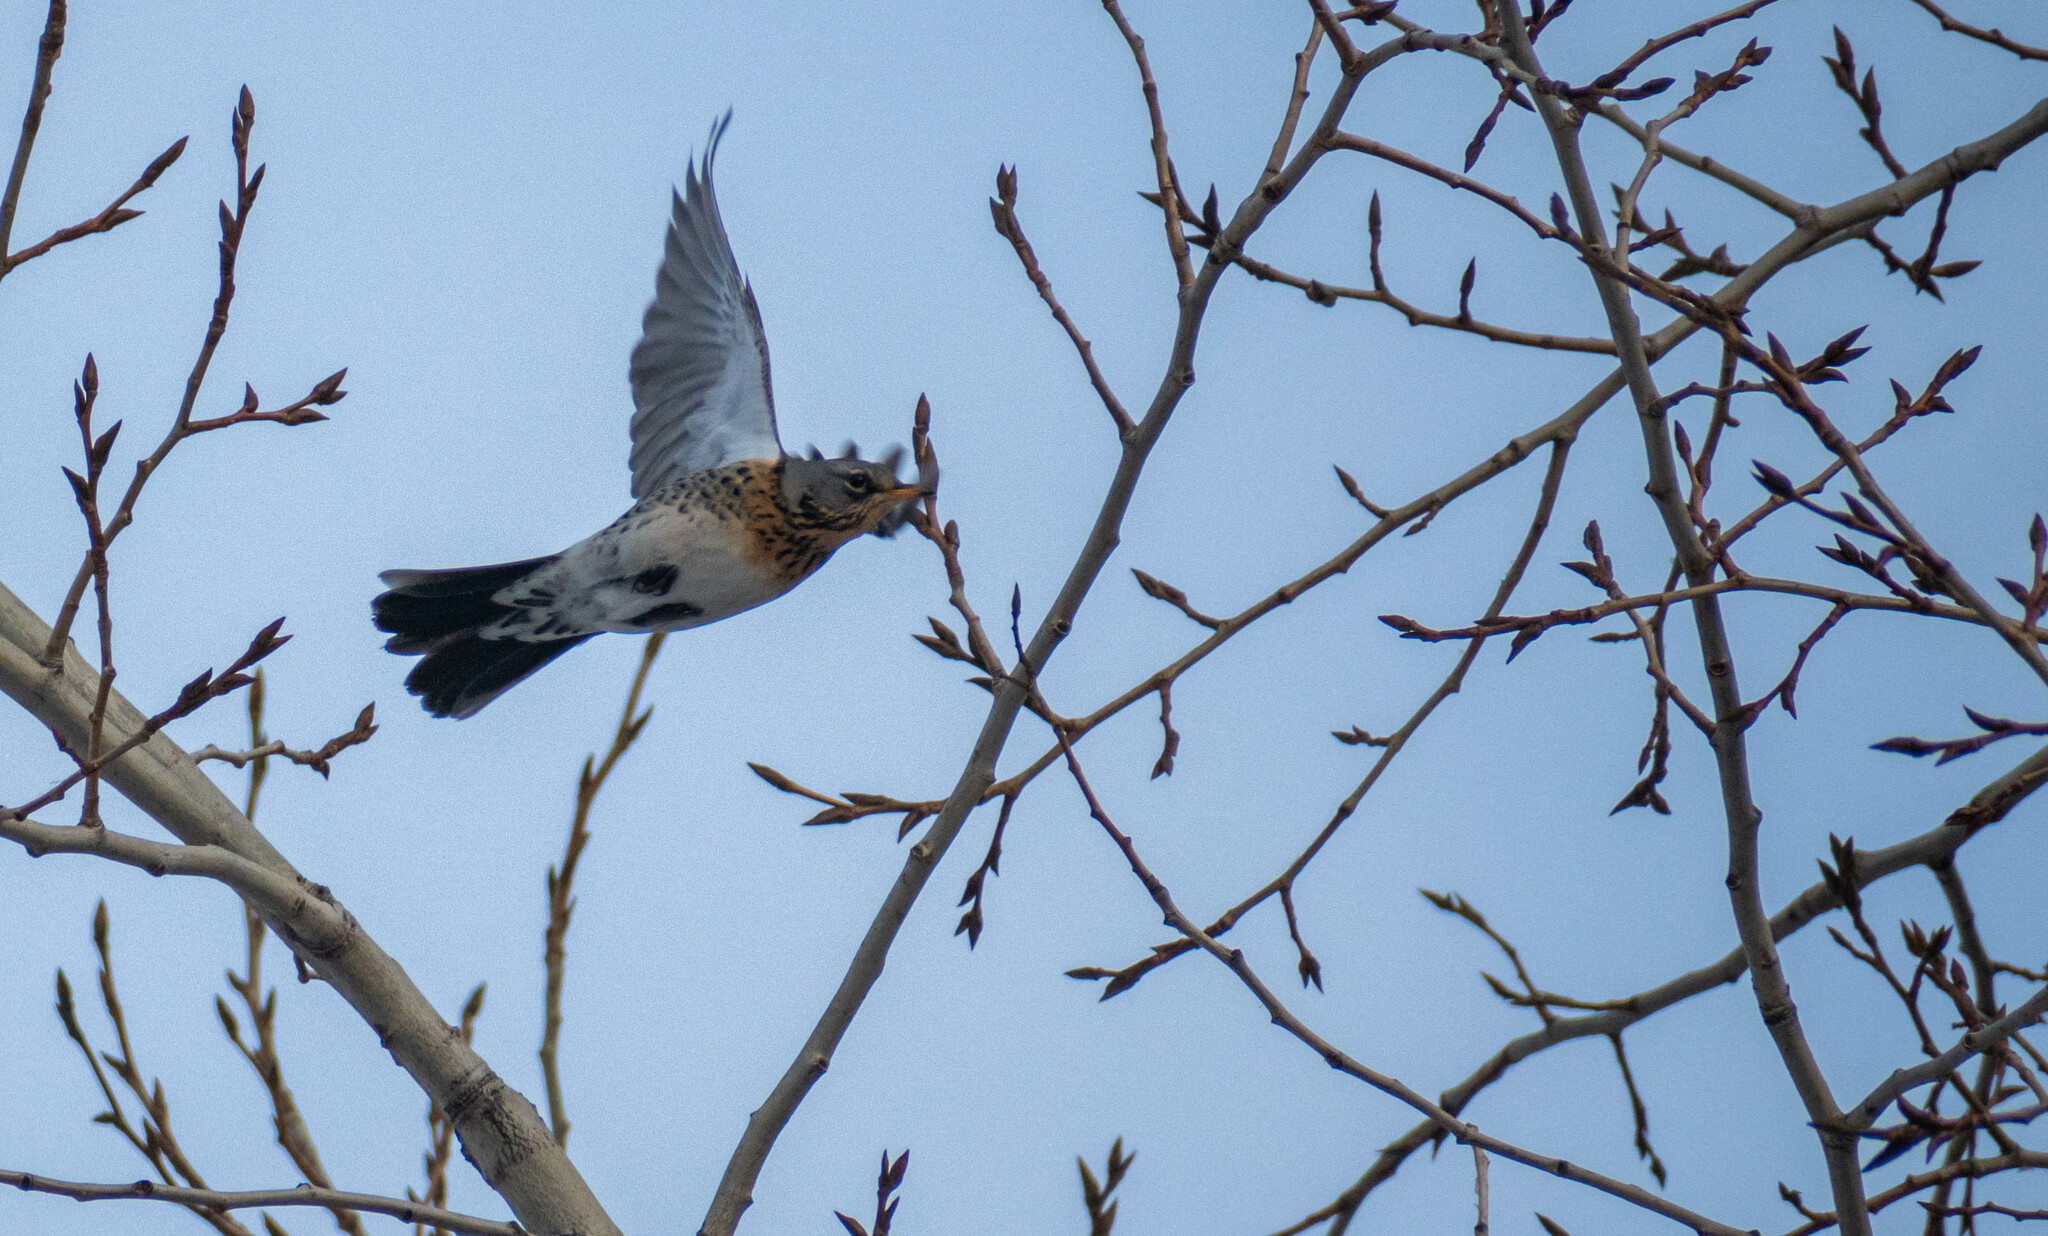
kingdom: Animalia
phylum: Chordata
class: Aves
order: Passeriformes
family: Turdidae
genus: Turdus
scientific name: Turdus pilaris
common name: Fieldfare
